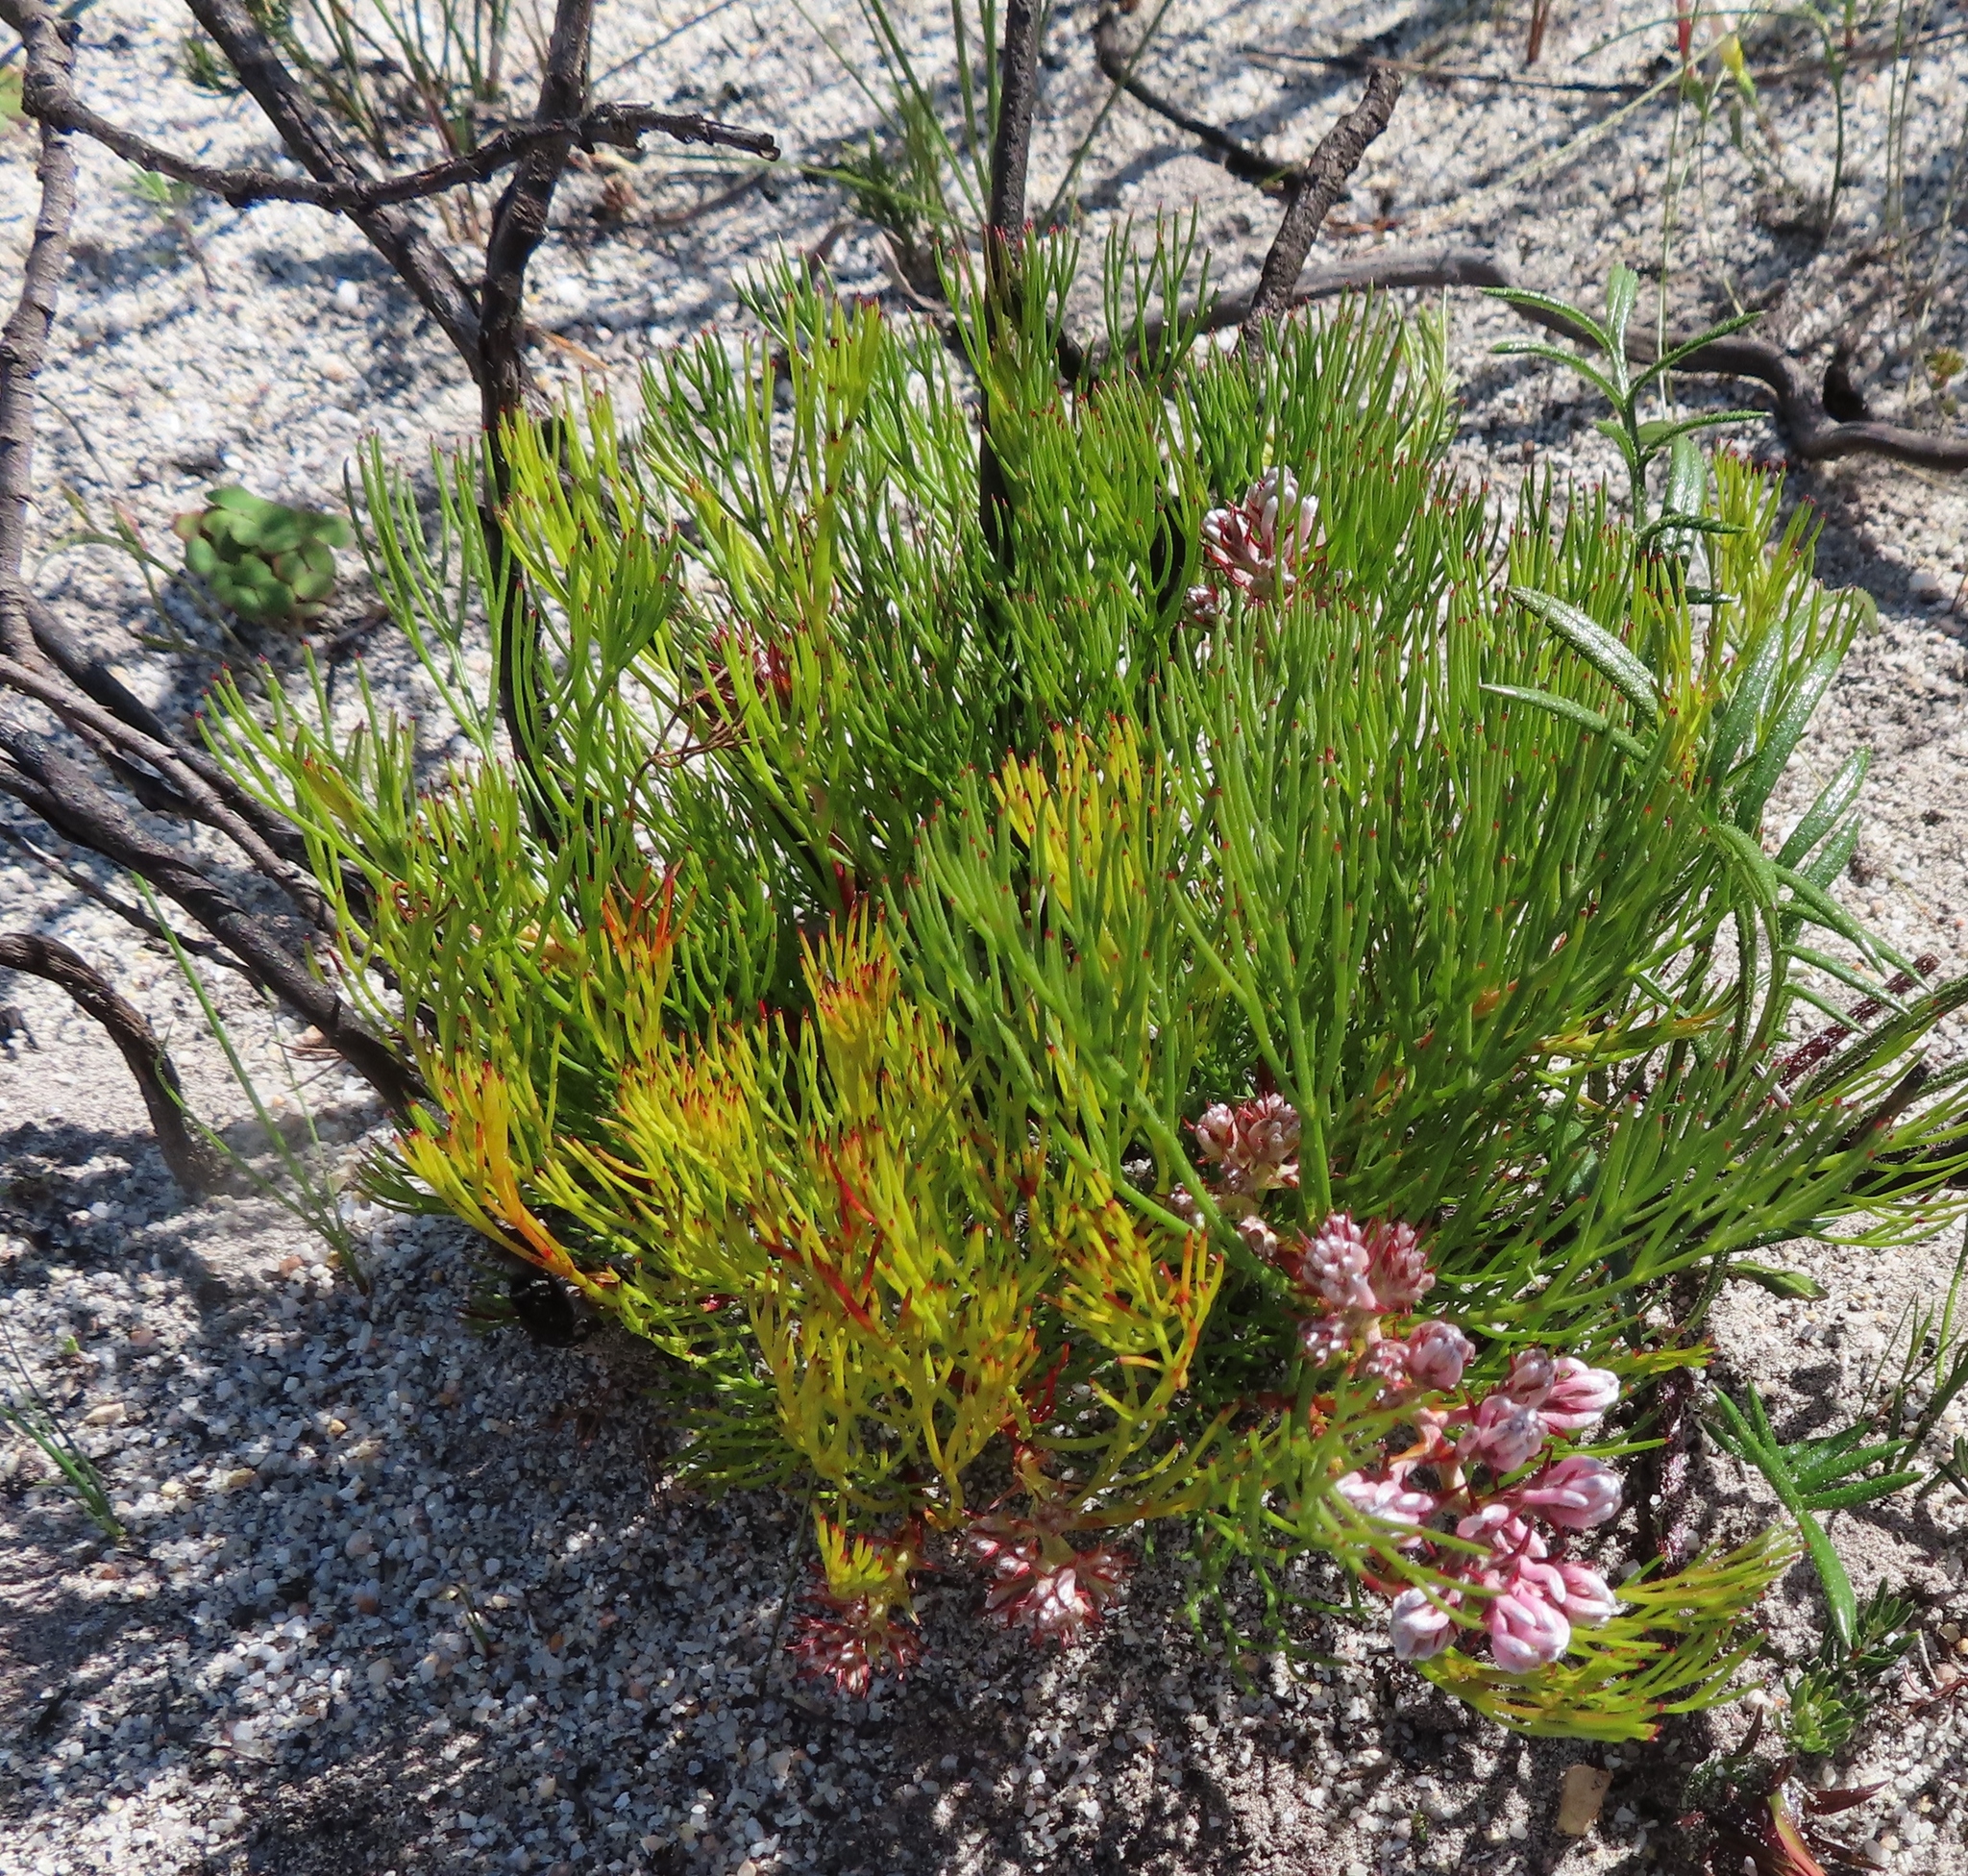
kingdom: Plantae
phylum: Tracheophyta
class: Magnoliopsida
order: Proteales
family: Proteaceae
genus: Serruria
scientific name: Serruria rubricaulis
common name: Red-stem spiderhead
